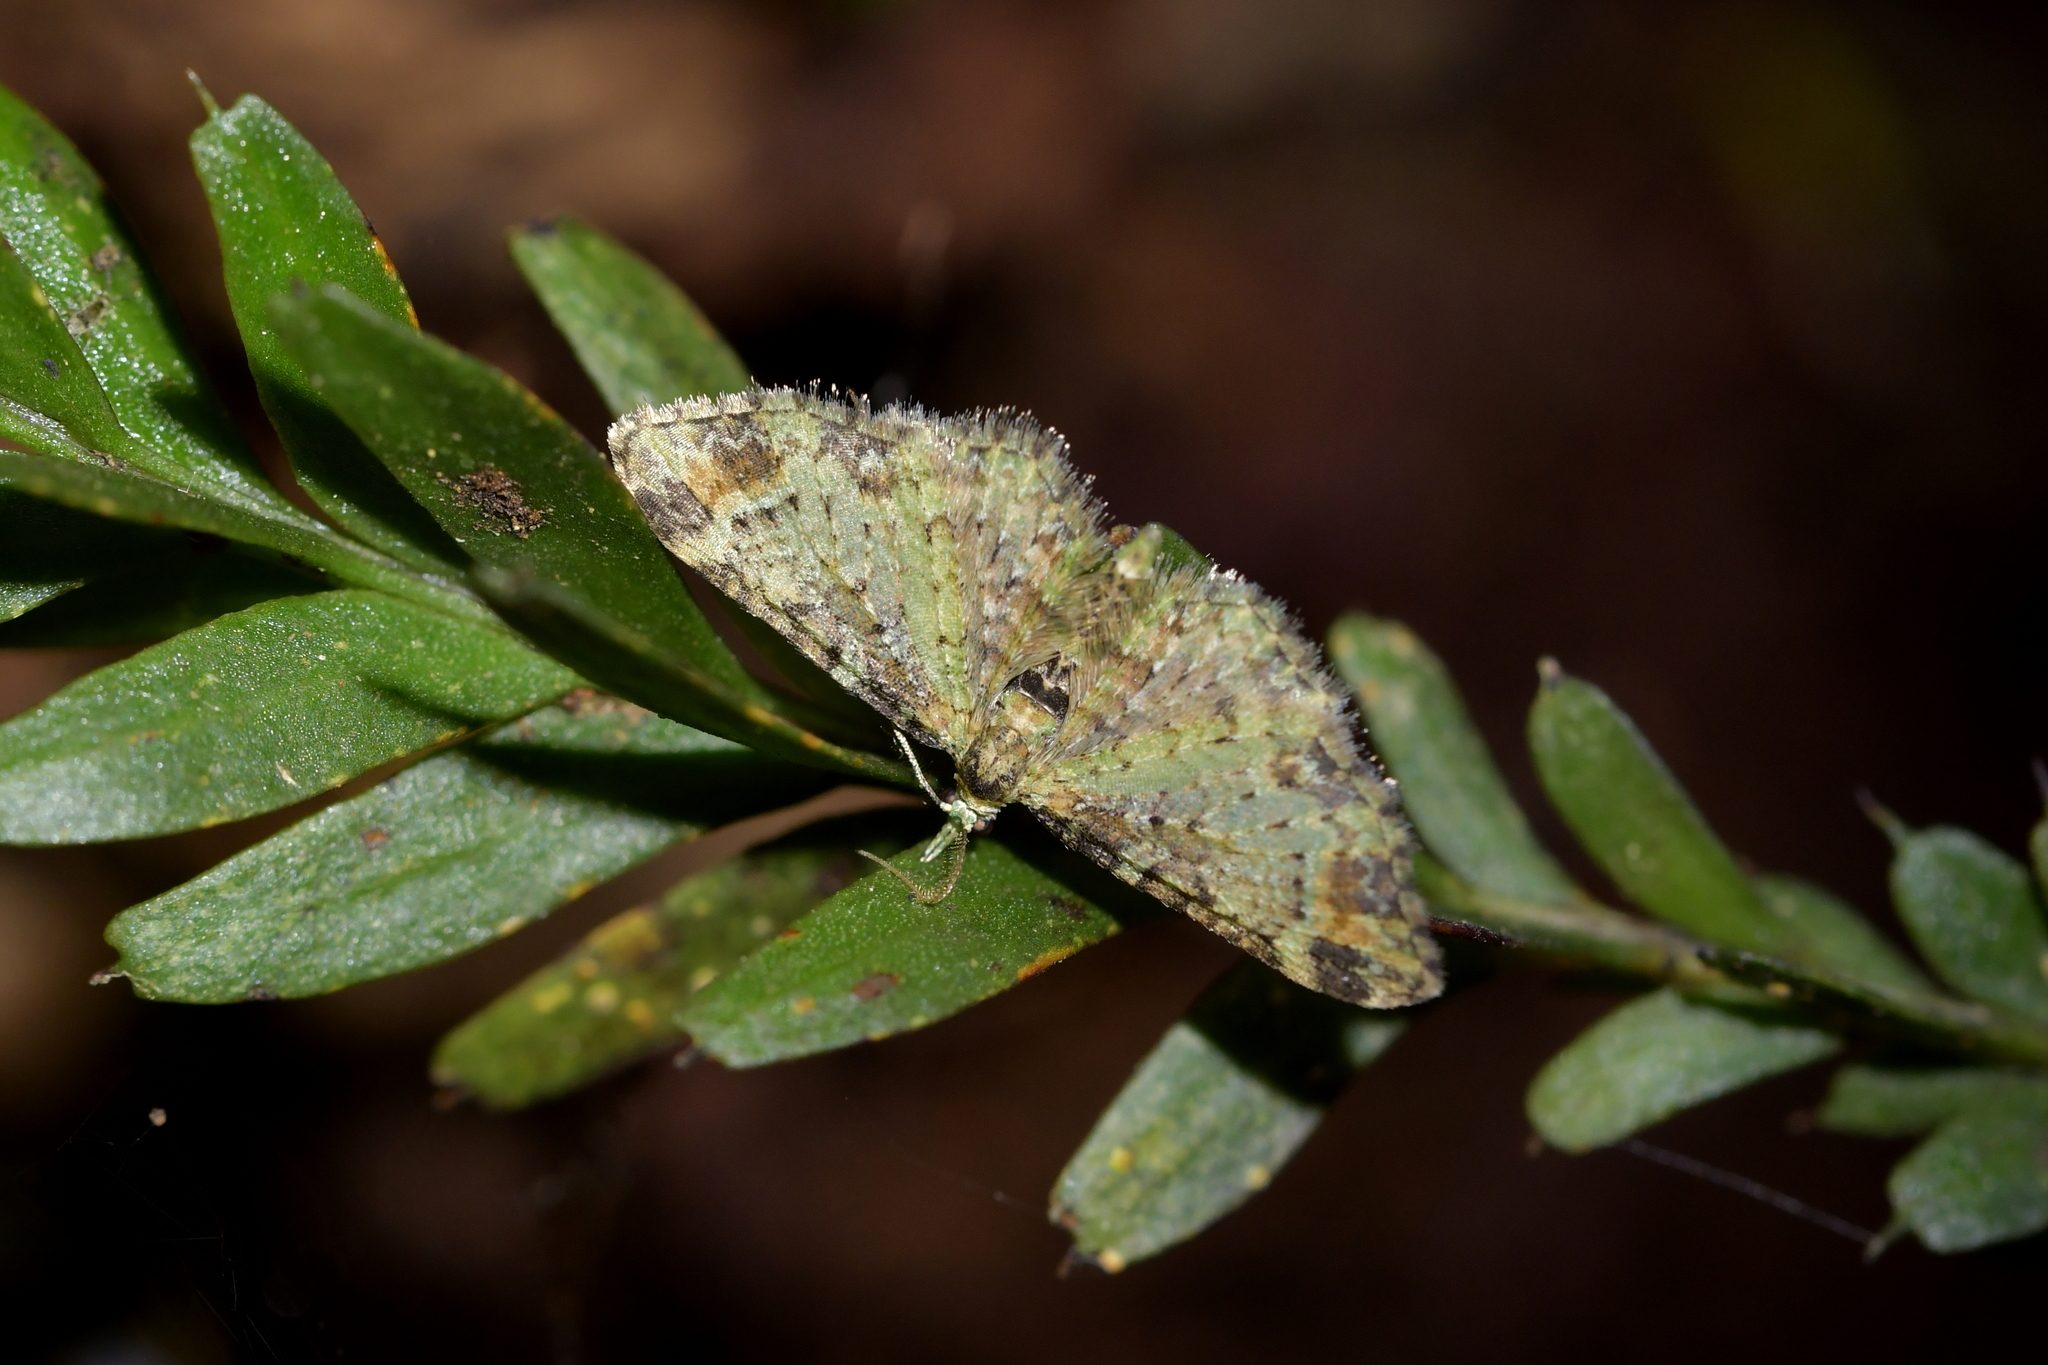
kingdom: Animalia
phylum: Arthropoda
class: Insecta
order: Lepidoptera
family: Geometridae
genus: Pasiphila
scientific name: Pasiphila plinthina
